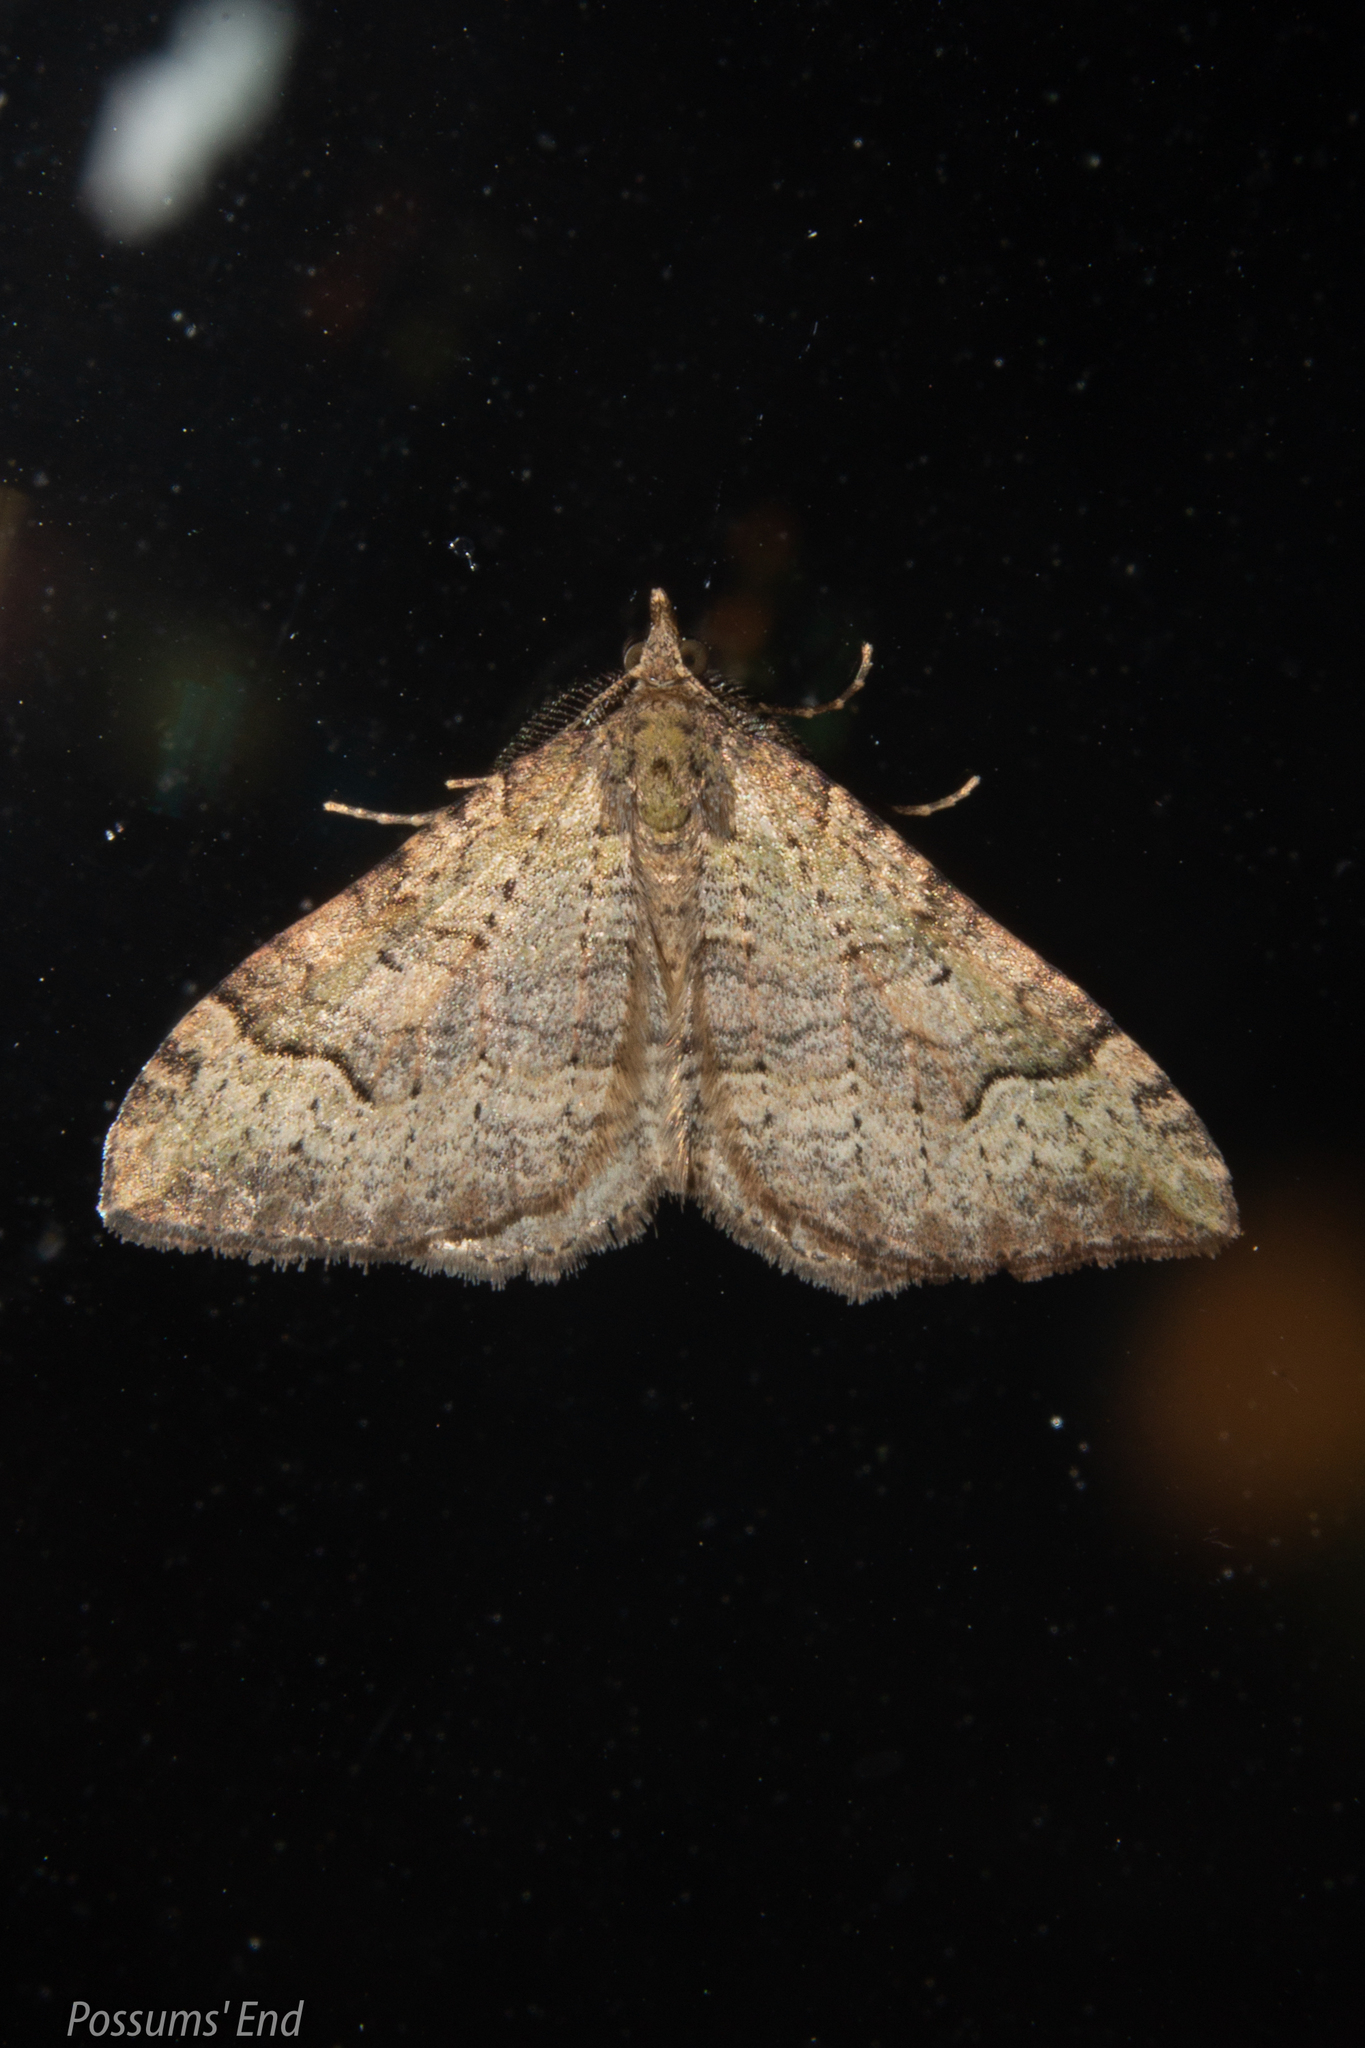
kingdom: Animalia
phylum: Arthropoda
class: Insecta
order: Lepidoptera
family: Geometridae
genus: Epyaxa
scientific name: Epyaxa rosearia
